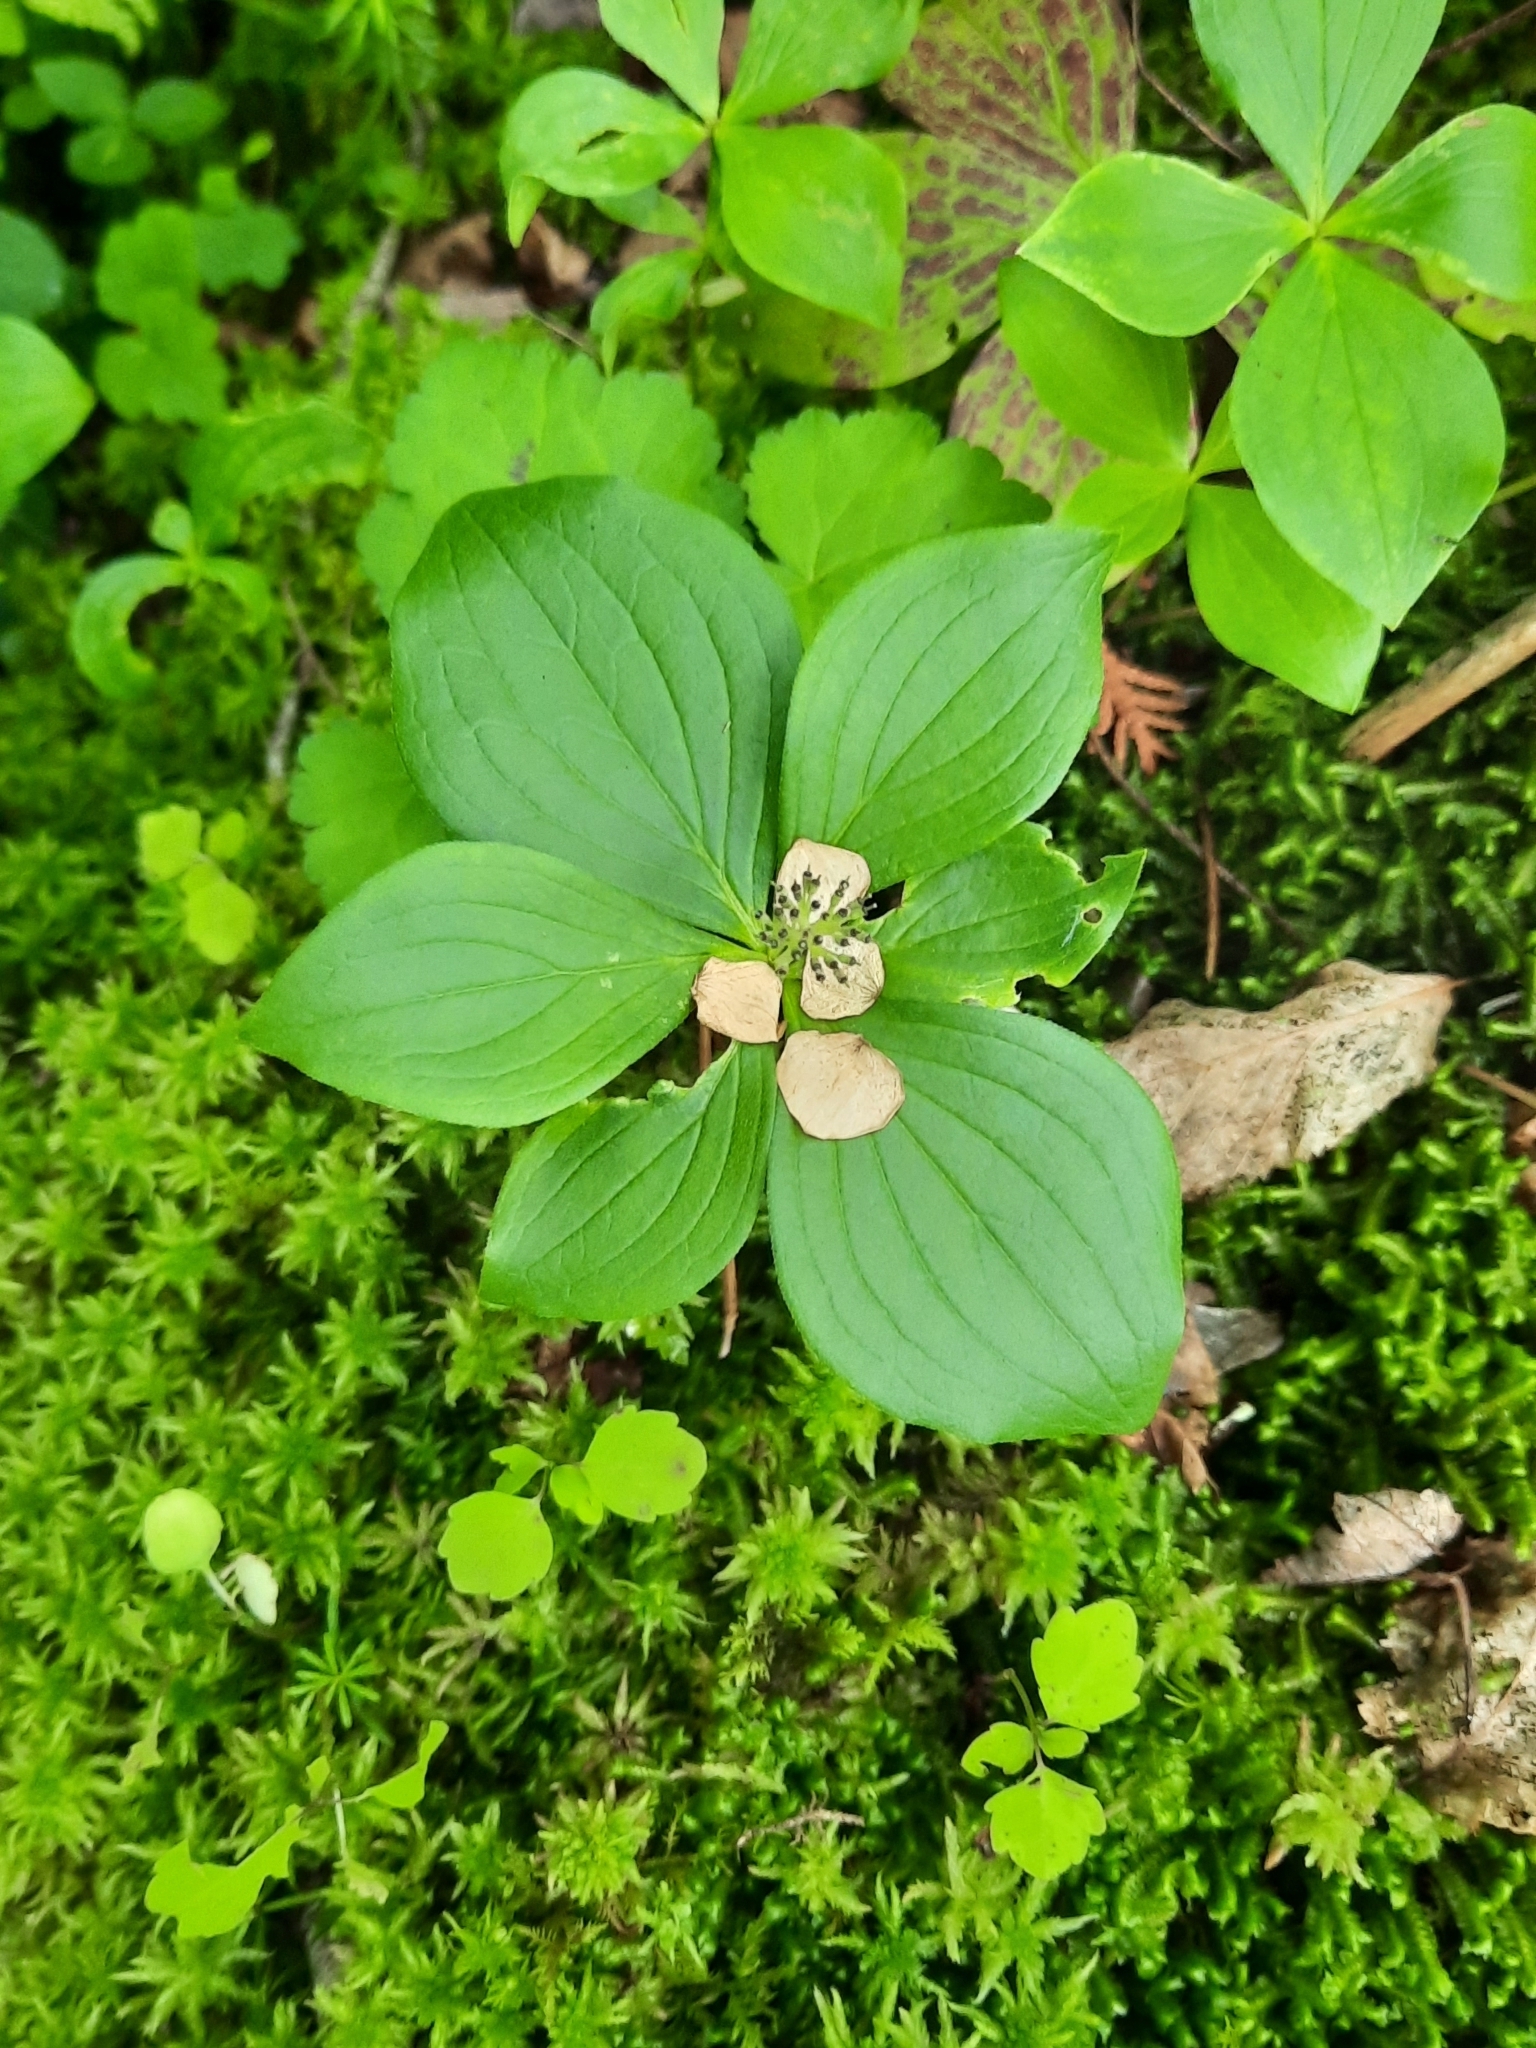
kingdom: Plantae
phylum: Tracheophyta
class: Magnoliopsida
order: Cornales
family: Cornaceae
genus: Cornus
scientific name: Cornus canadensis
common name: Creeping dogwood
